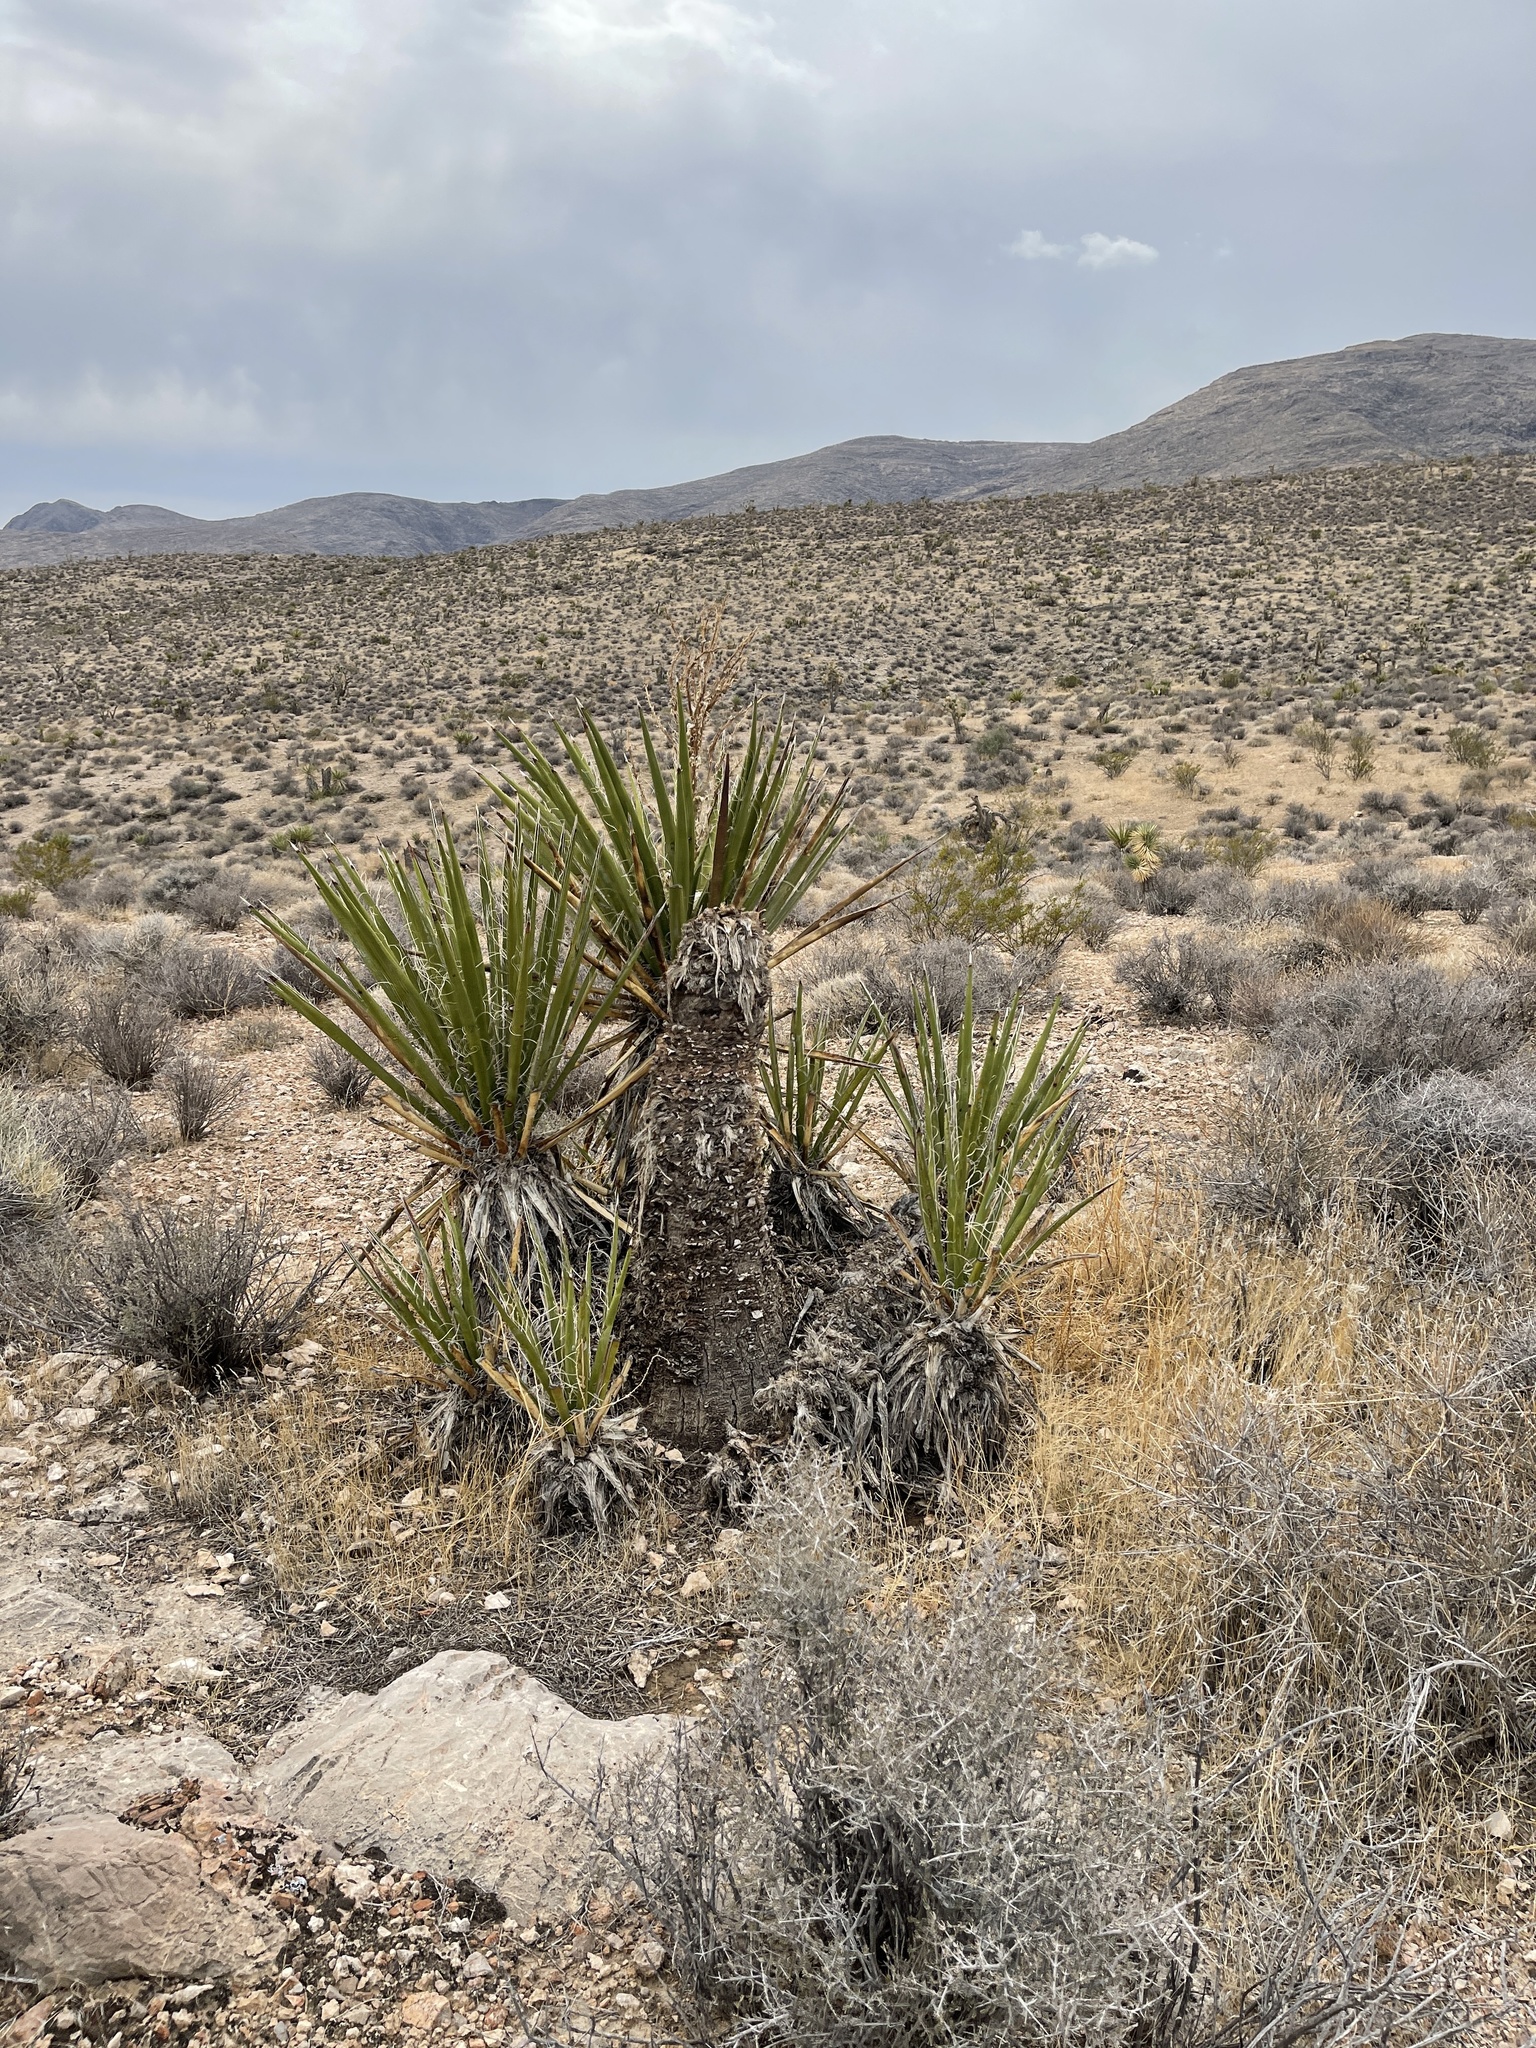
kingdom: Plantae
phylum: Tracheophyta
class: Liliopsida
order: Asparagales
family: Asparagaceae
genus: Yucca
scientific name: Yucca schidigera
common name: Mojave yucca
